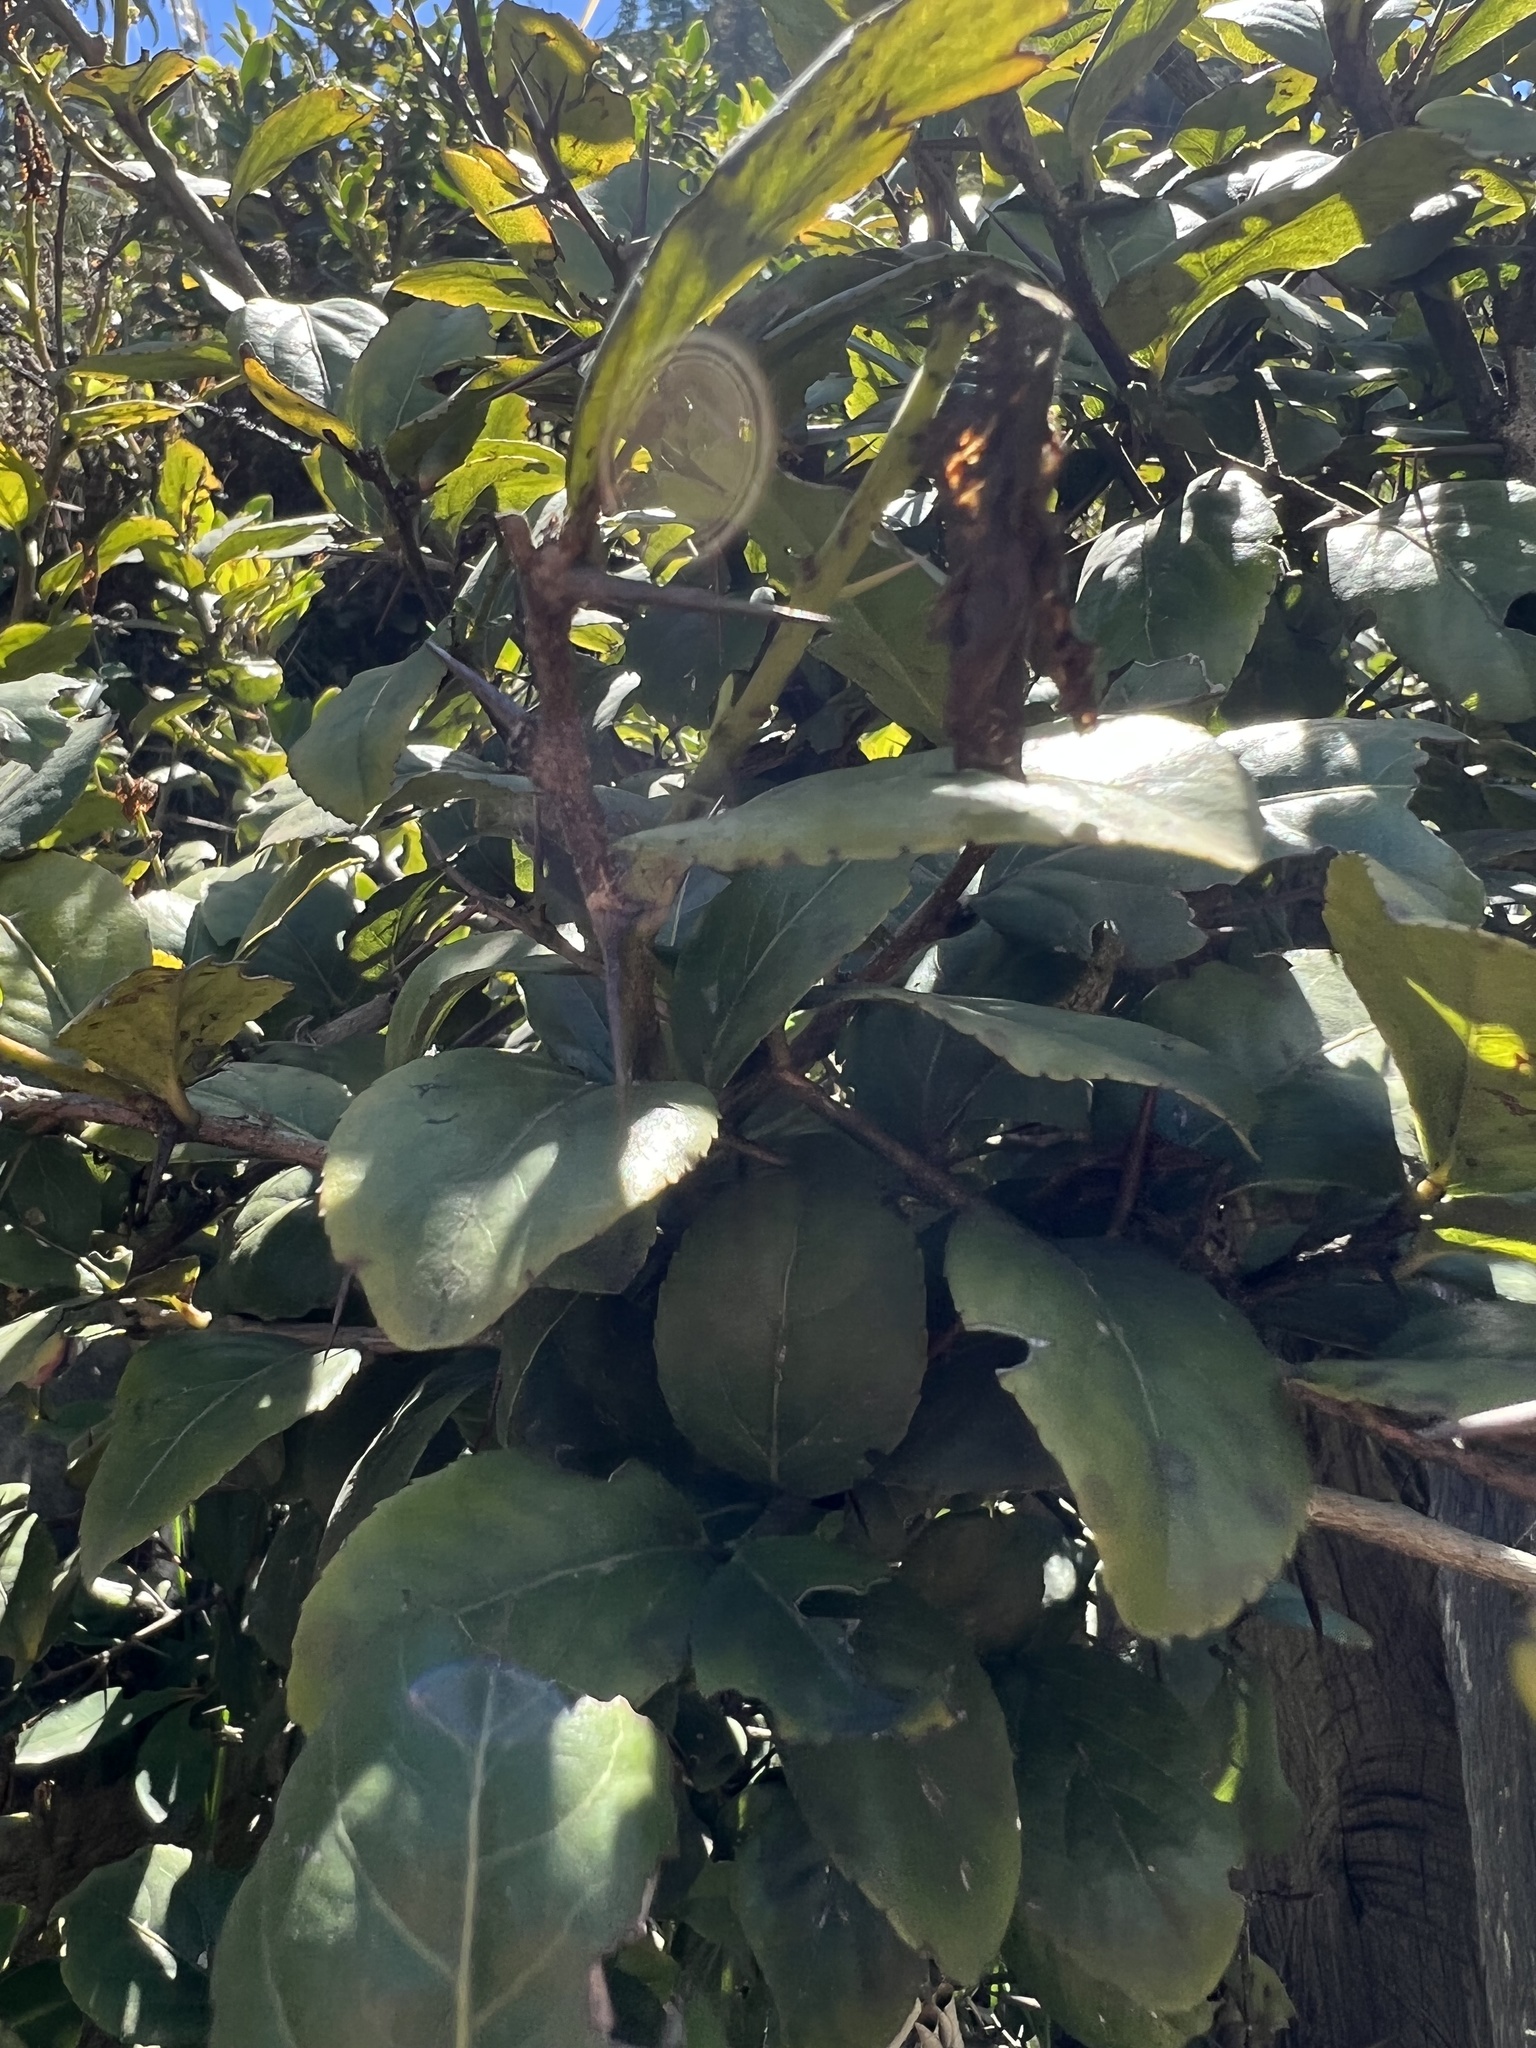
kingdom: Plantae
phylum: Tracheophyta
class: Magnoliopsida
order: Malpighiales
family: Salicaceae
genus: Xylosma
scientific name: Xylosma spiculifera
